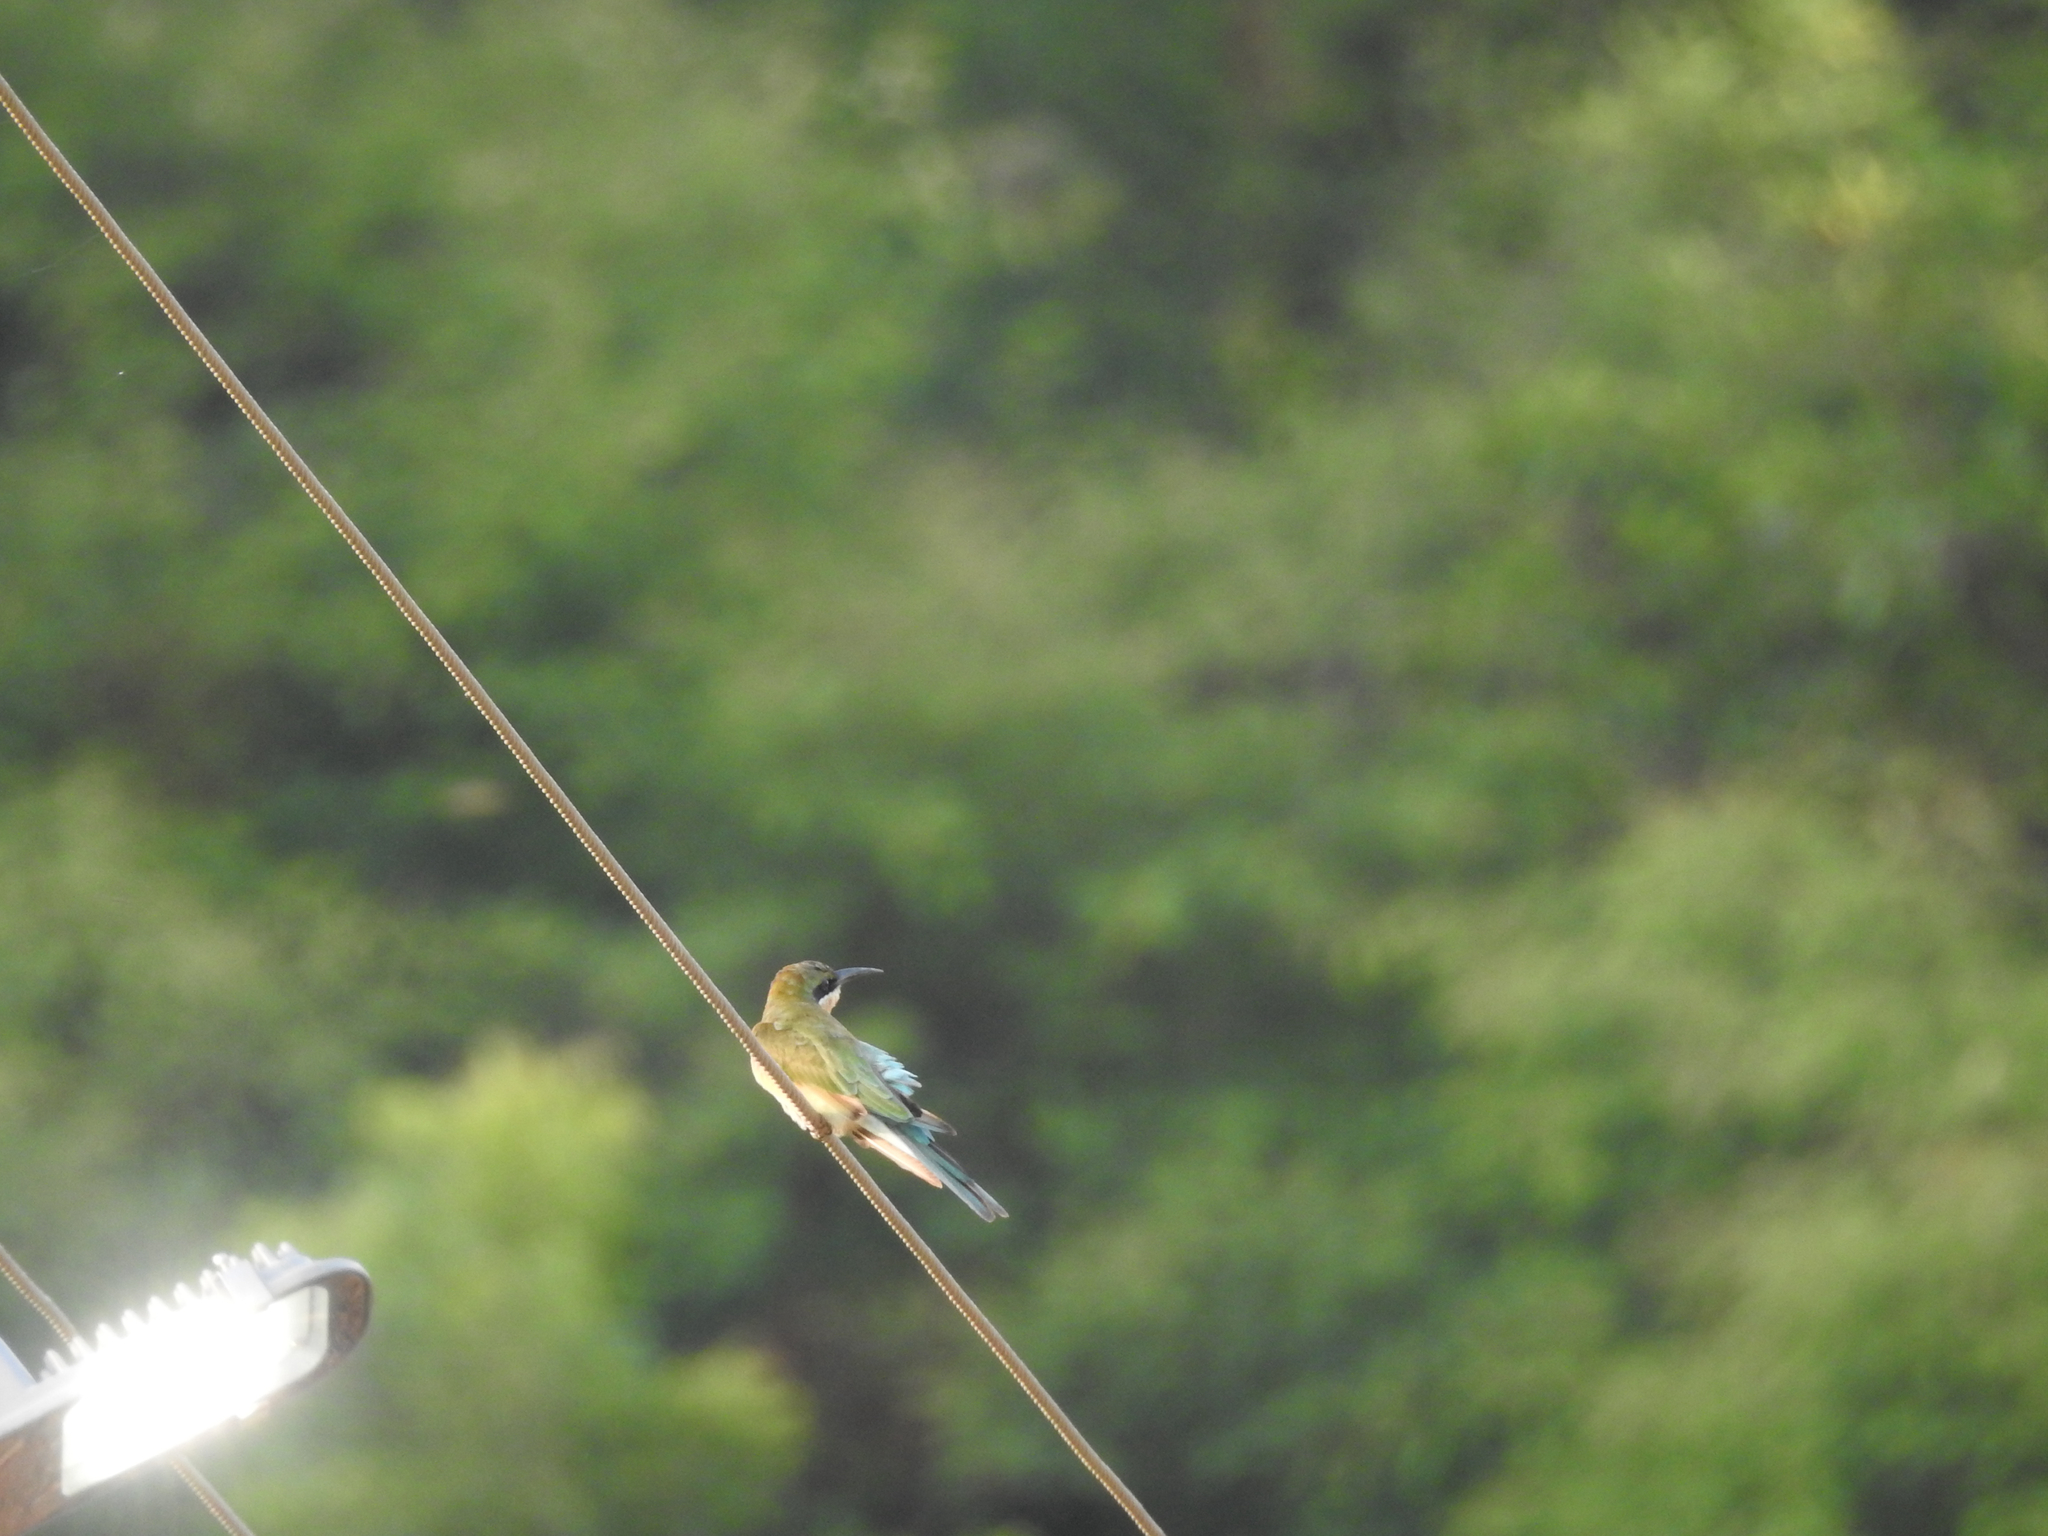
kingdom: Animalia
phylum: Chordata
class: Aves
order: Coraciiformes
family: Meropidae
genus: Merops
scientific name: Merops philippinus
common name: Blue-tailed bee-eater
